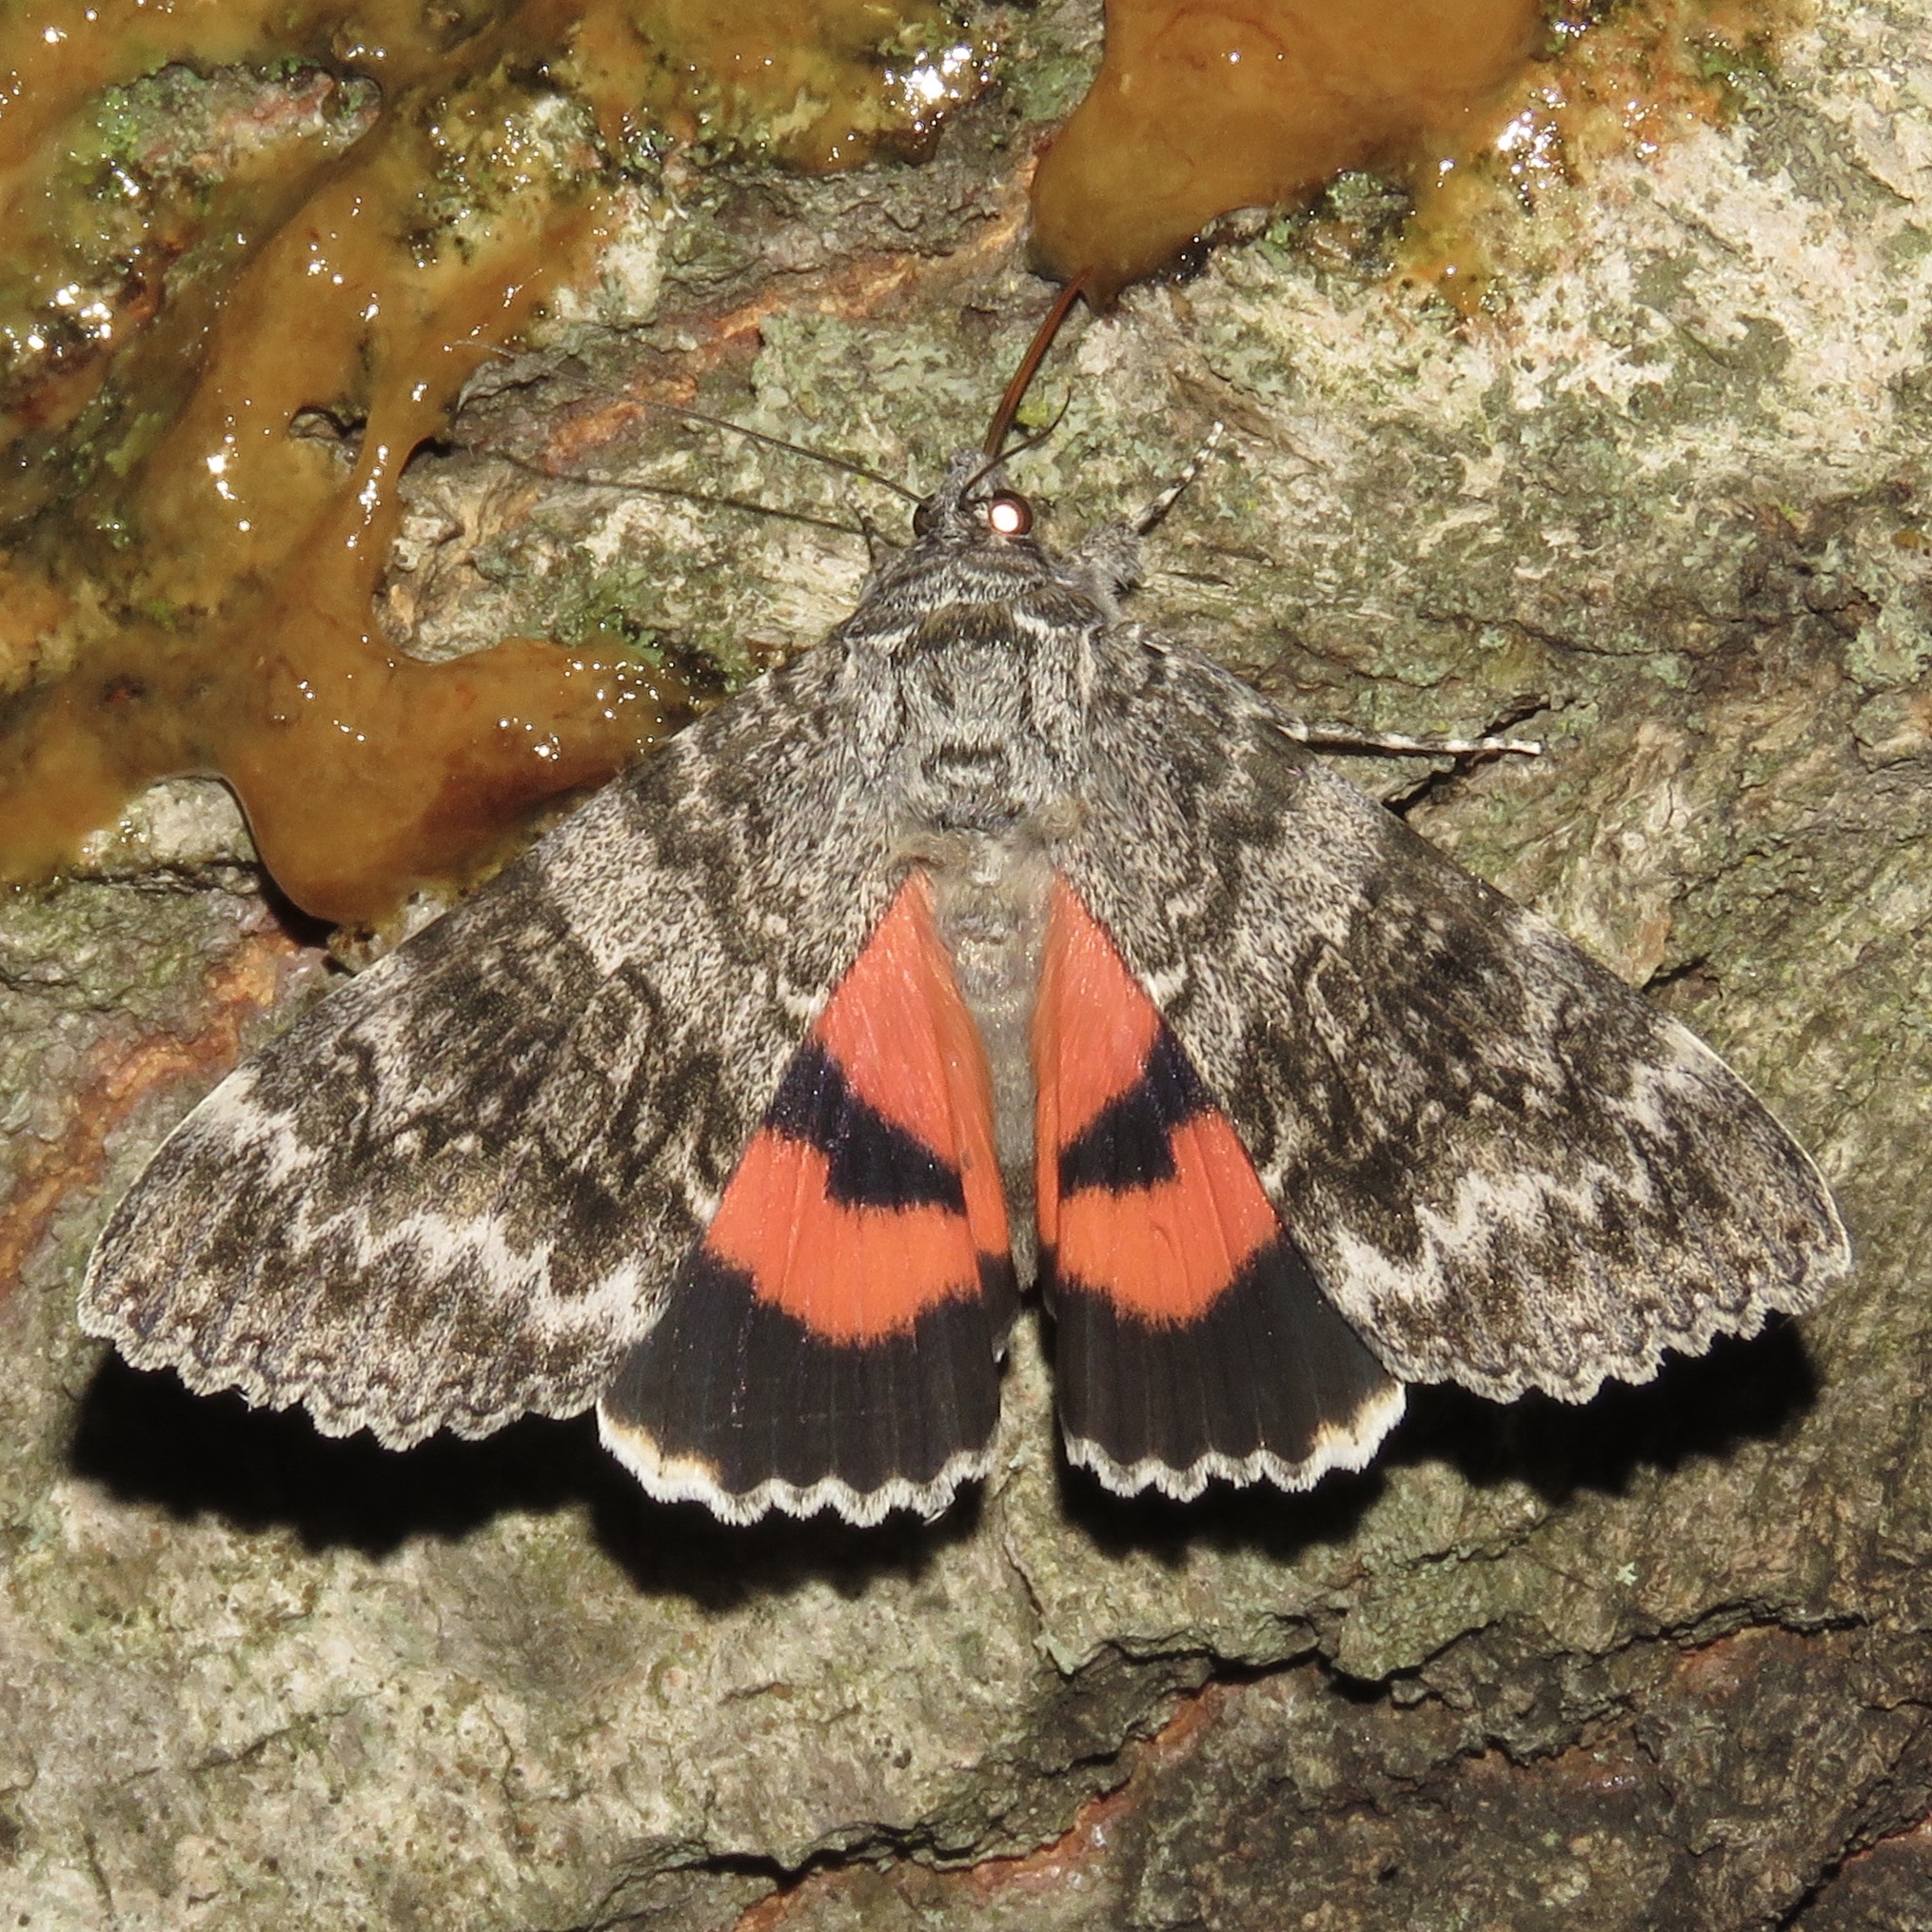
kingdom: Animalia
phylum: Arthropoda
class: Insecta
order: Lepidoptera
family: Erebidae
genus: Catocala
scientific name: Catocala semirelicta
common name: Semirelict underwing moth
